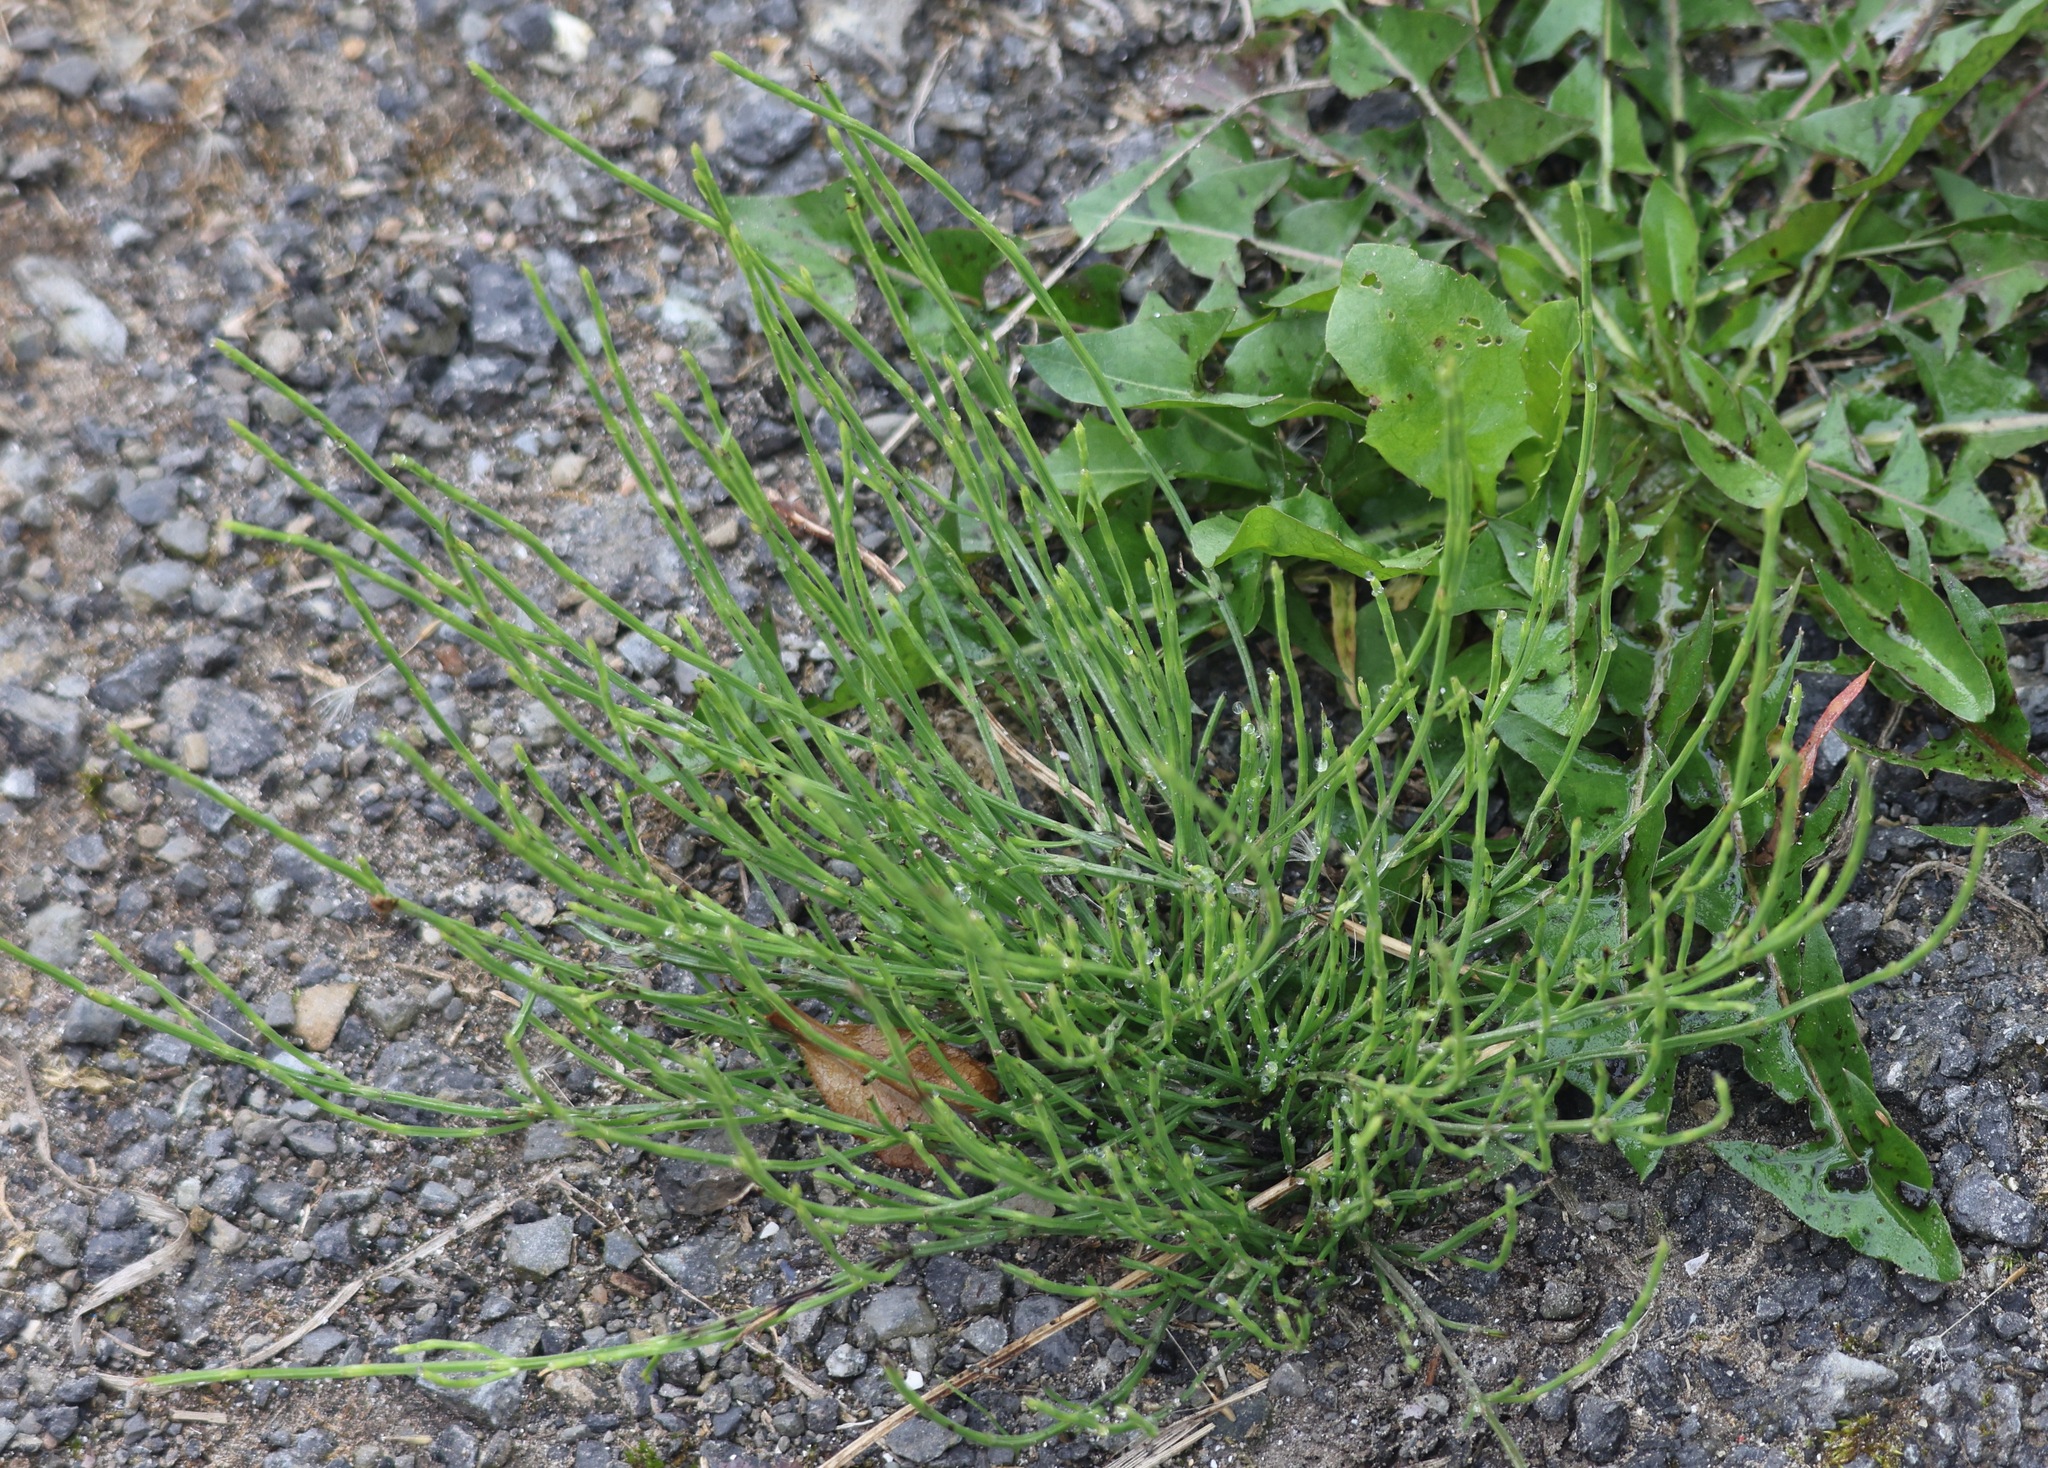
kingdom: Plantae
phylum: Tracheophyta
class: Polypodiopsida
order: Equisetales
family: Equisetaceae
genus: Equisetum
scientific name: Equisetum arvense
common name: Field horsetail
